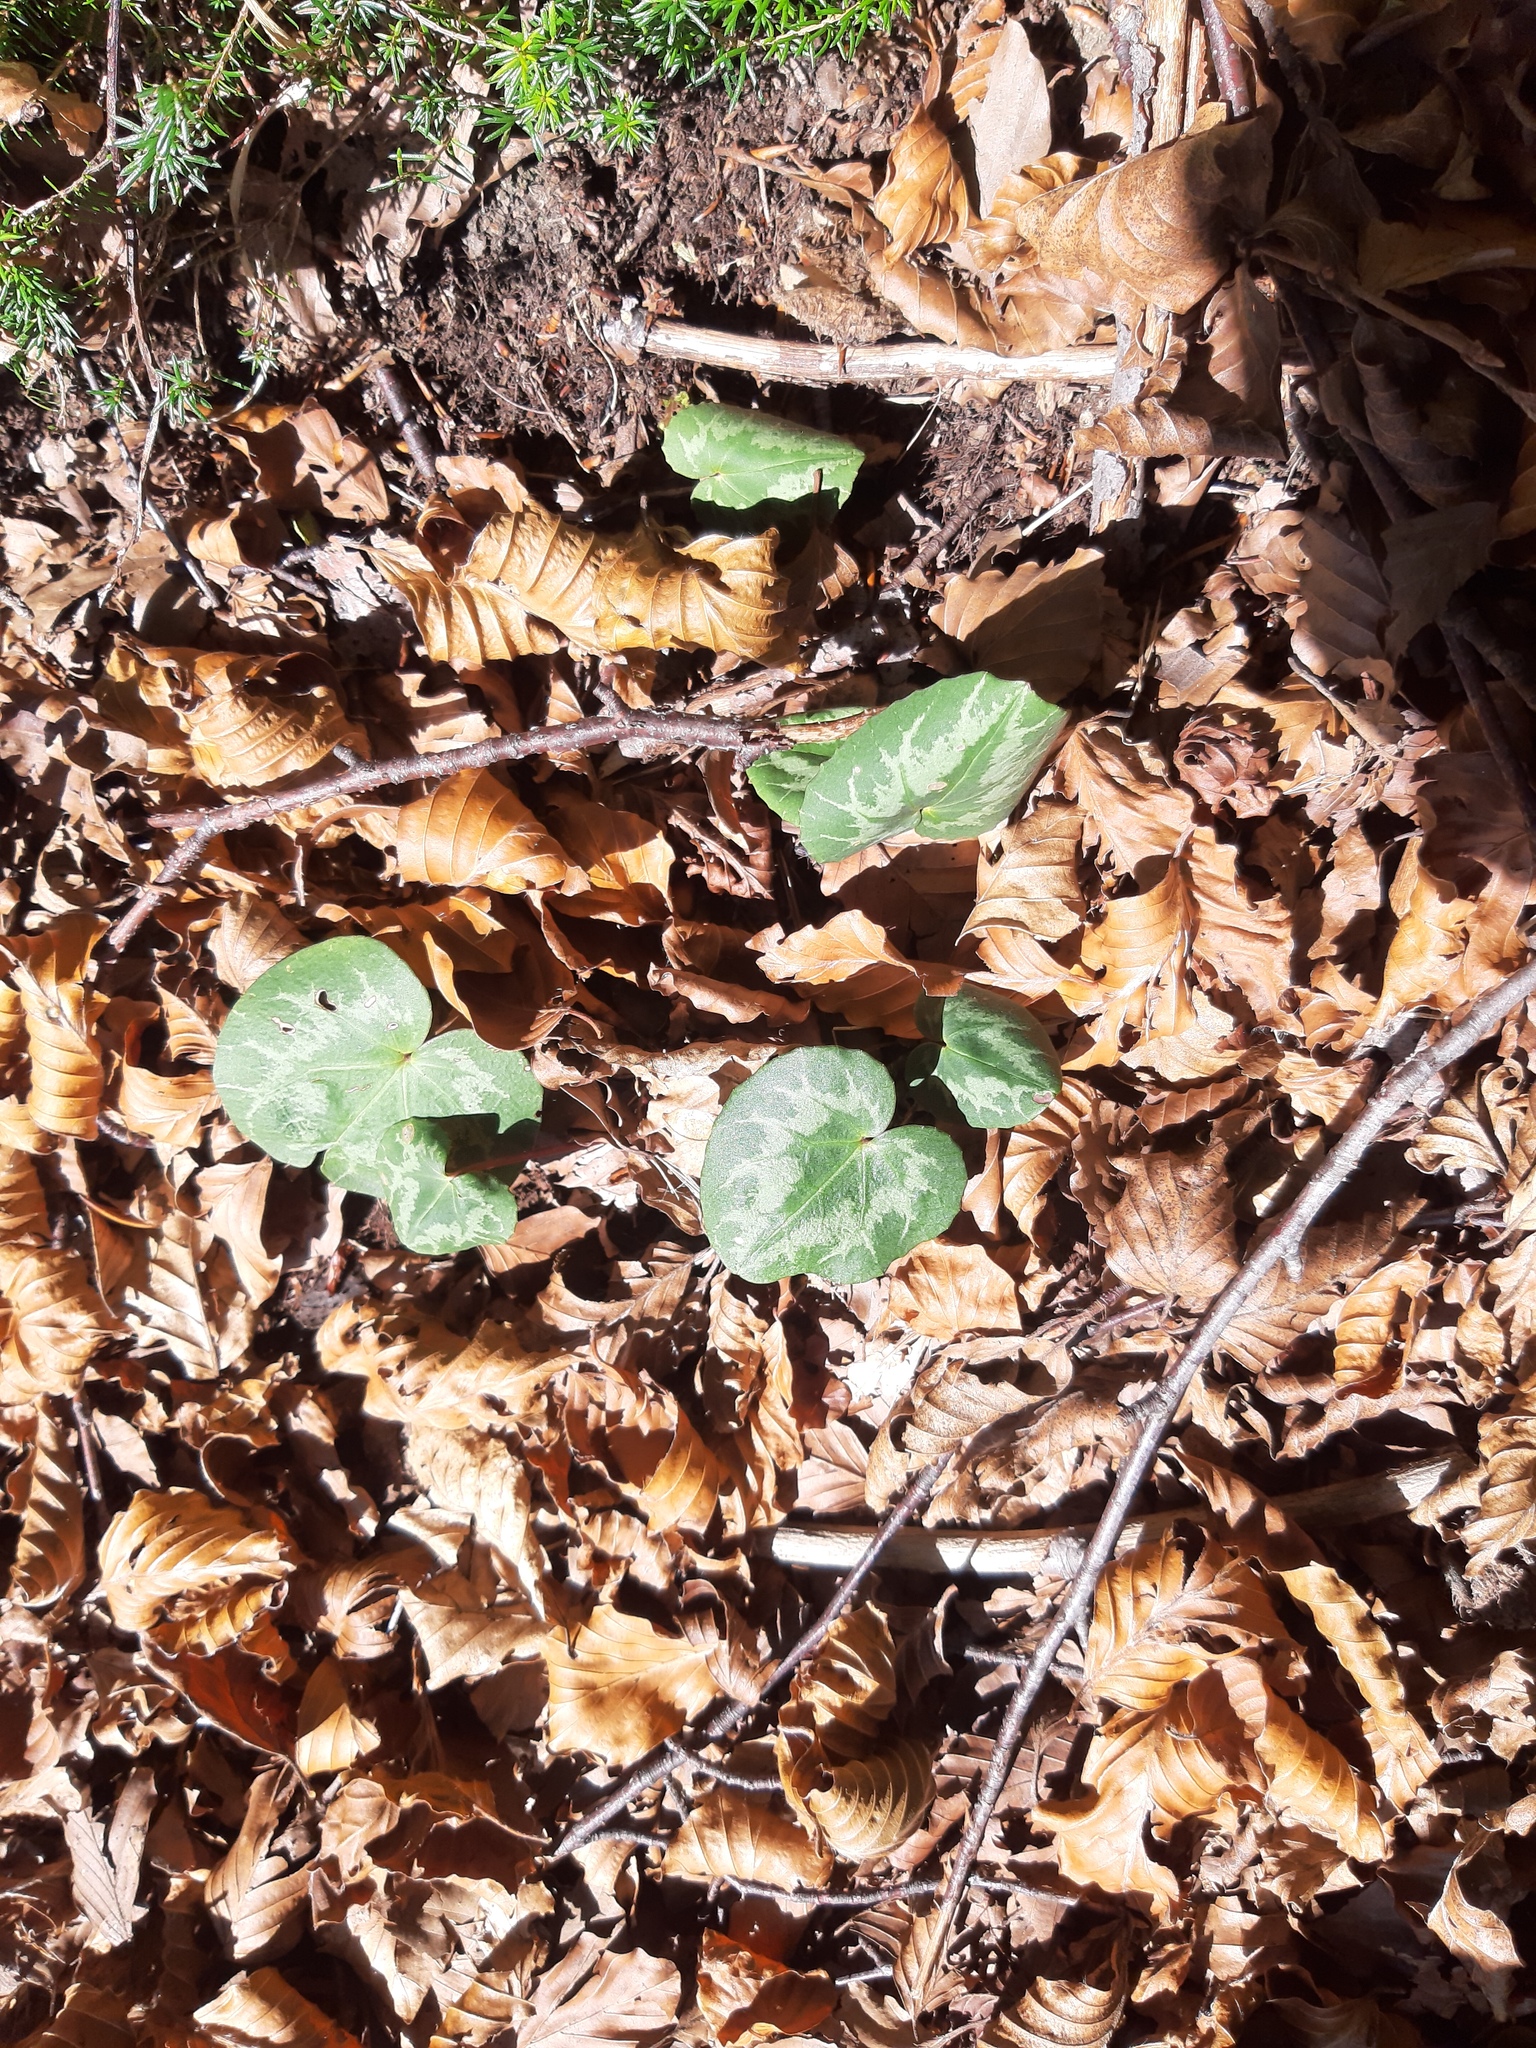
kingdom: Plantae
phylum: Tracheophyta
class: Magnoliopsida
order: Ericales
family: Primulaceae
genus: Cyclamen
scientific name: Cyclamen purpurascens
